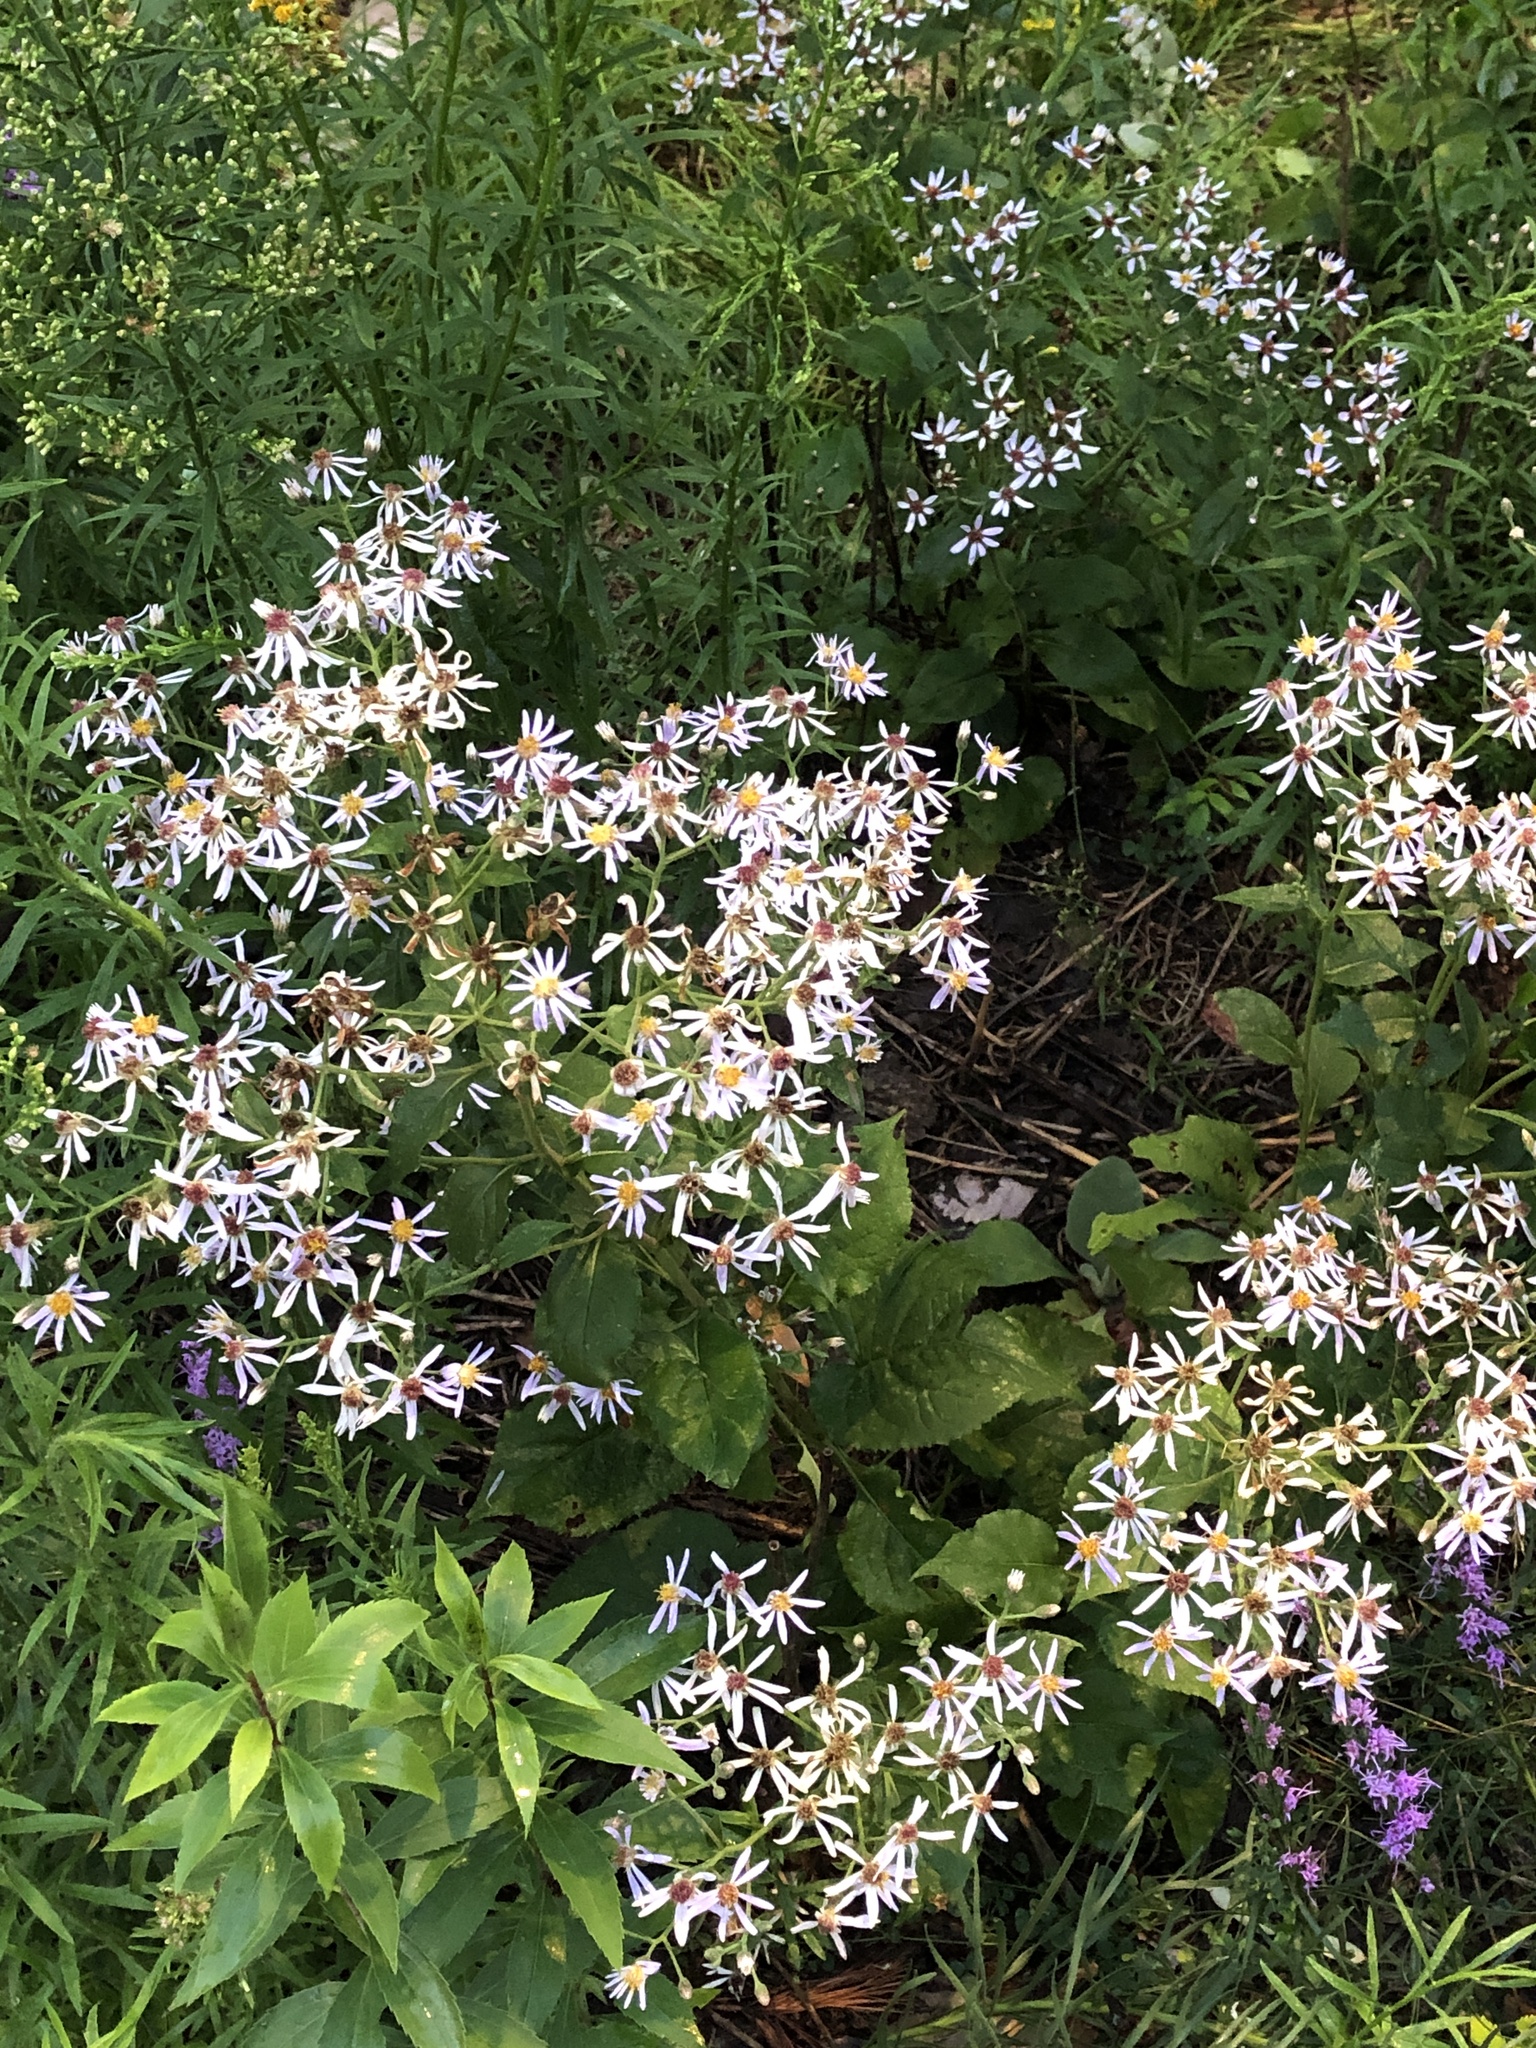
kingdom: Plantae
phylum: Tracheophyta
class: Magnoliopsida
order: Asterales
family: Asteraceae
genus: Eurybia
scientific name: Eurybia macrophylla
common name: Big-leaved aster
